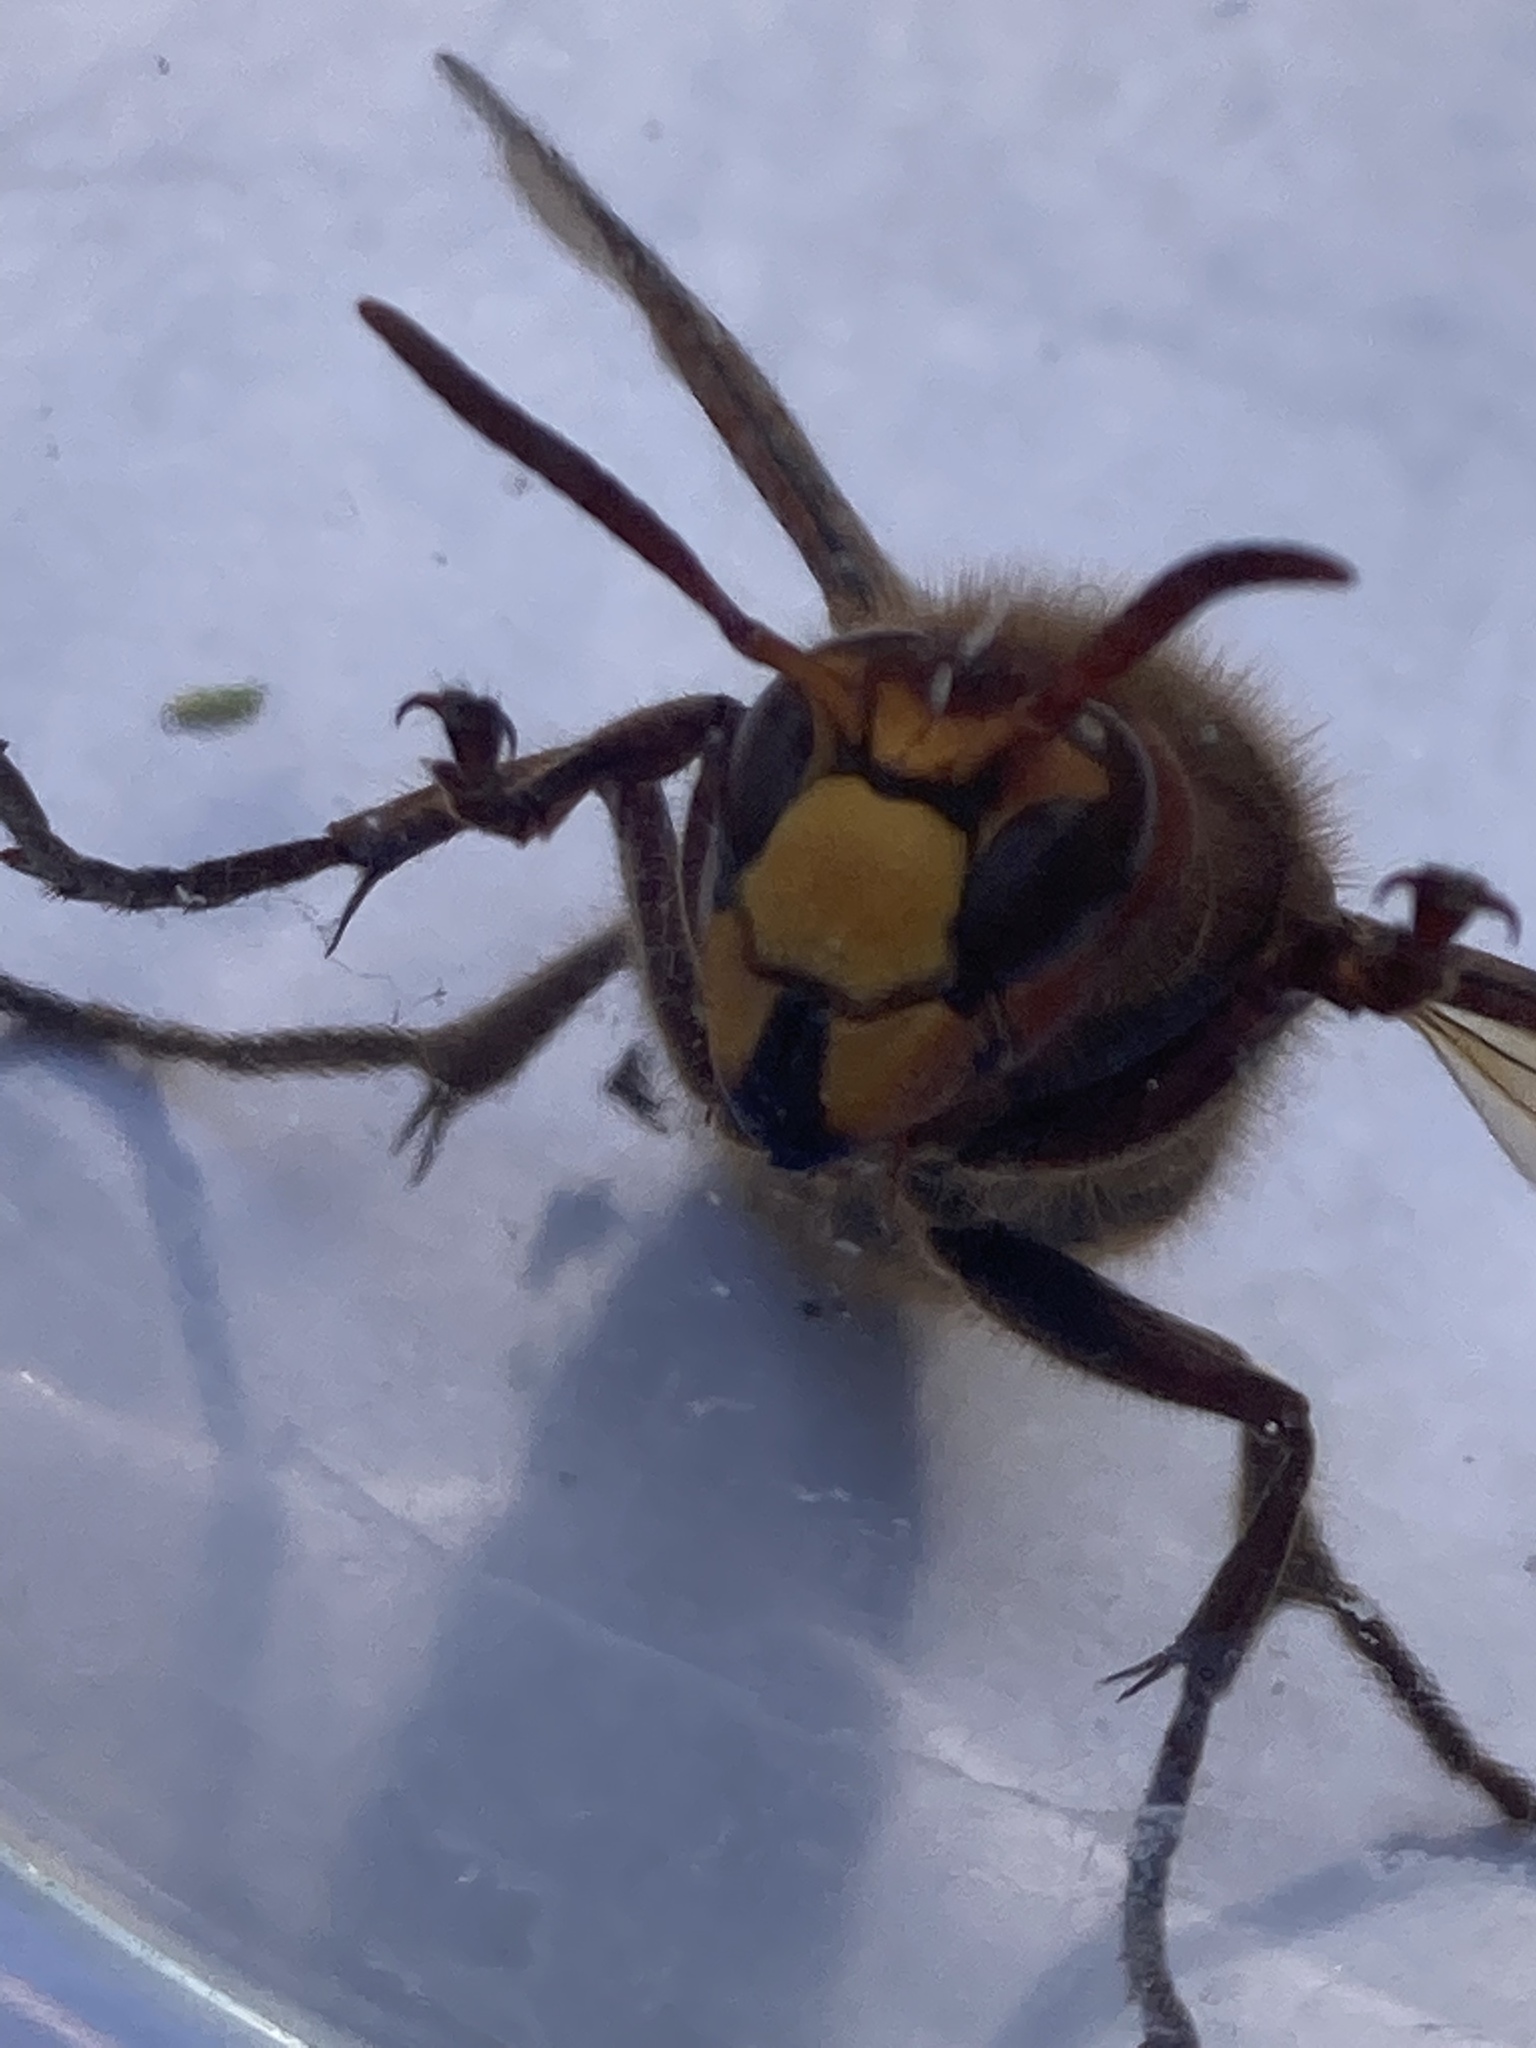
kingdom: Animalia
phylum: Arthropoda
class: Insecta
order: Hymenoptera
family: Vespidae
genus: Vespa
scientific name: Vespa crabro
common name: Hornet
